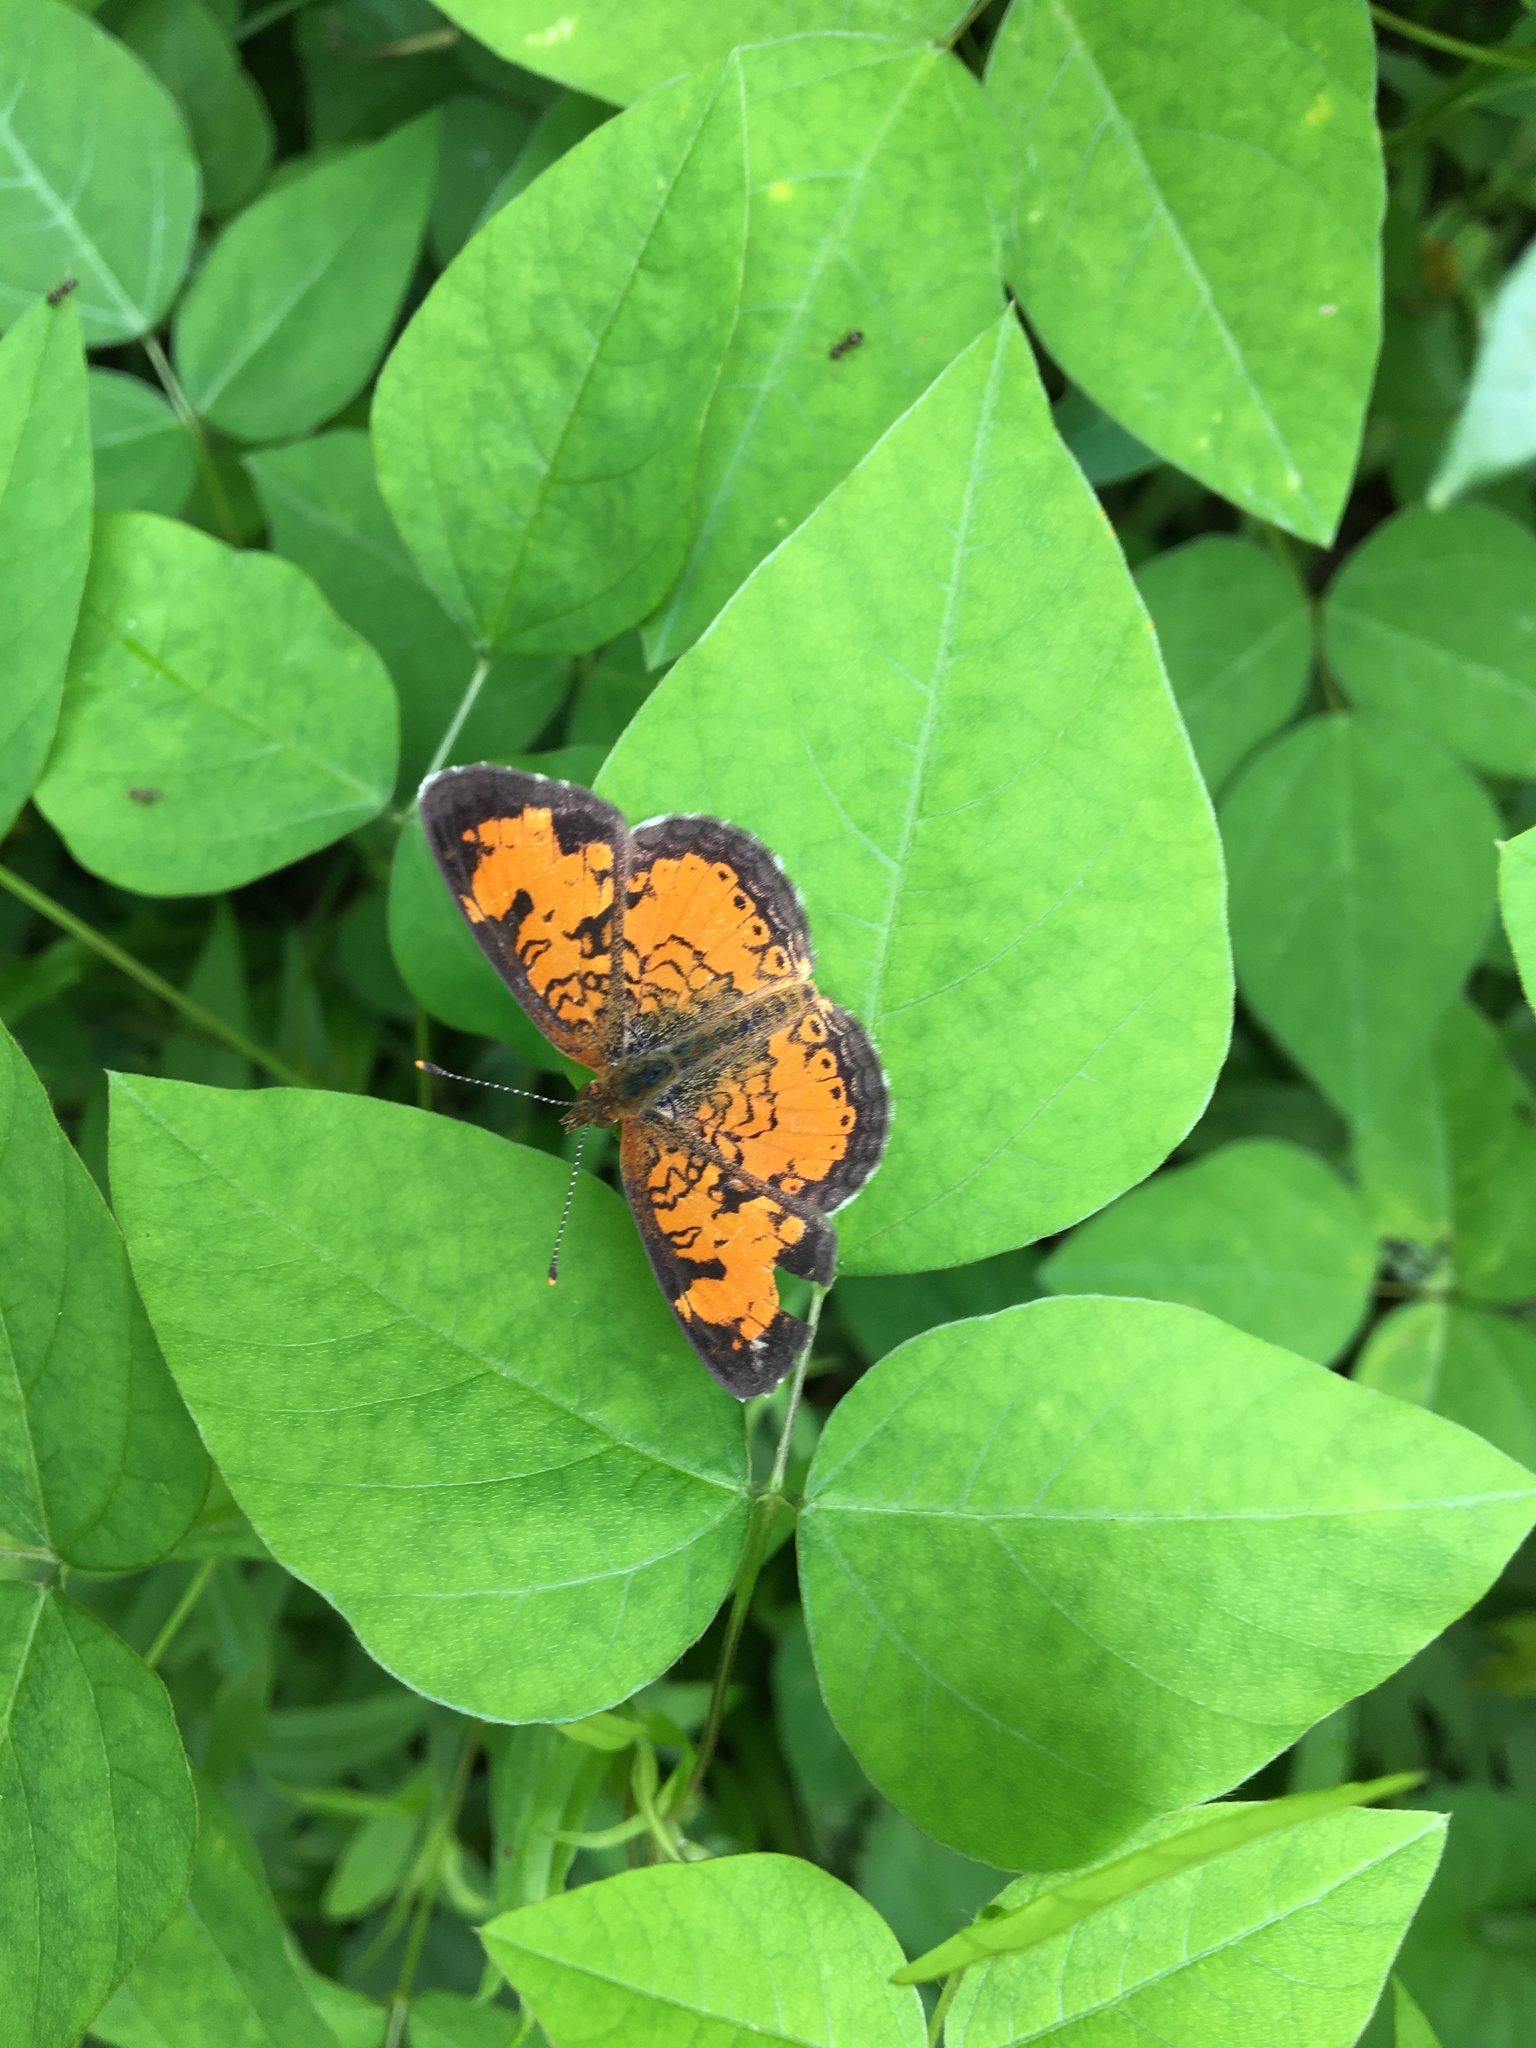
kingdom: Animalia
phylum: Arthropoda
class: Insecta
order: Lepidoptera
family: Nymphalidae
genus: Phyciodes
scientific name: Phyciodes tharos
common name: Pearl crescent
